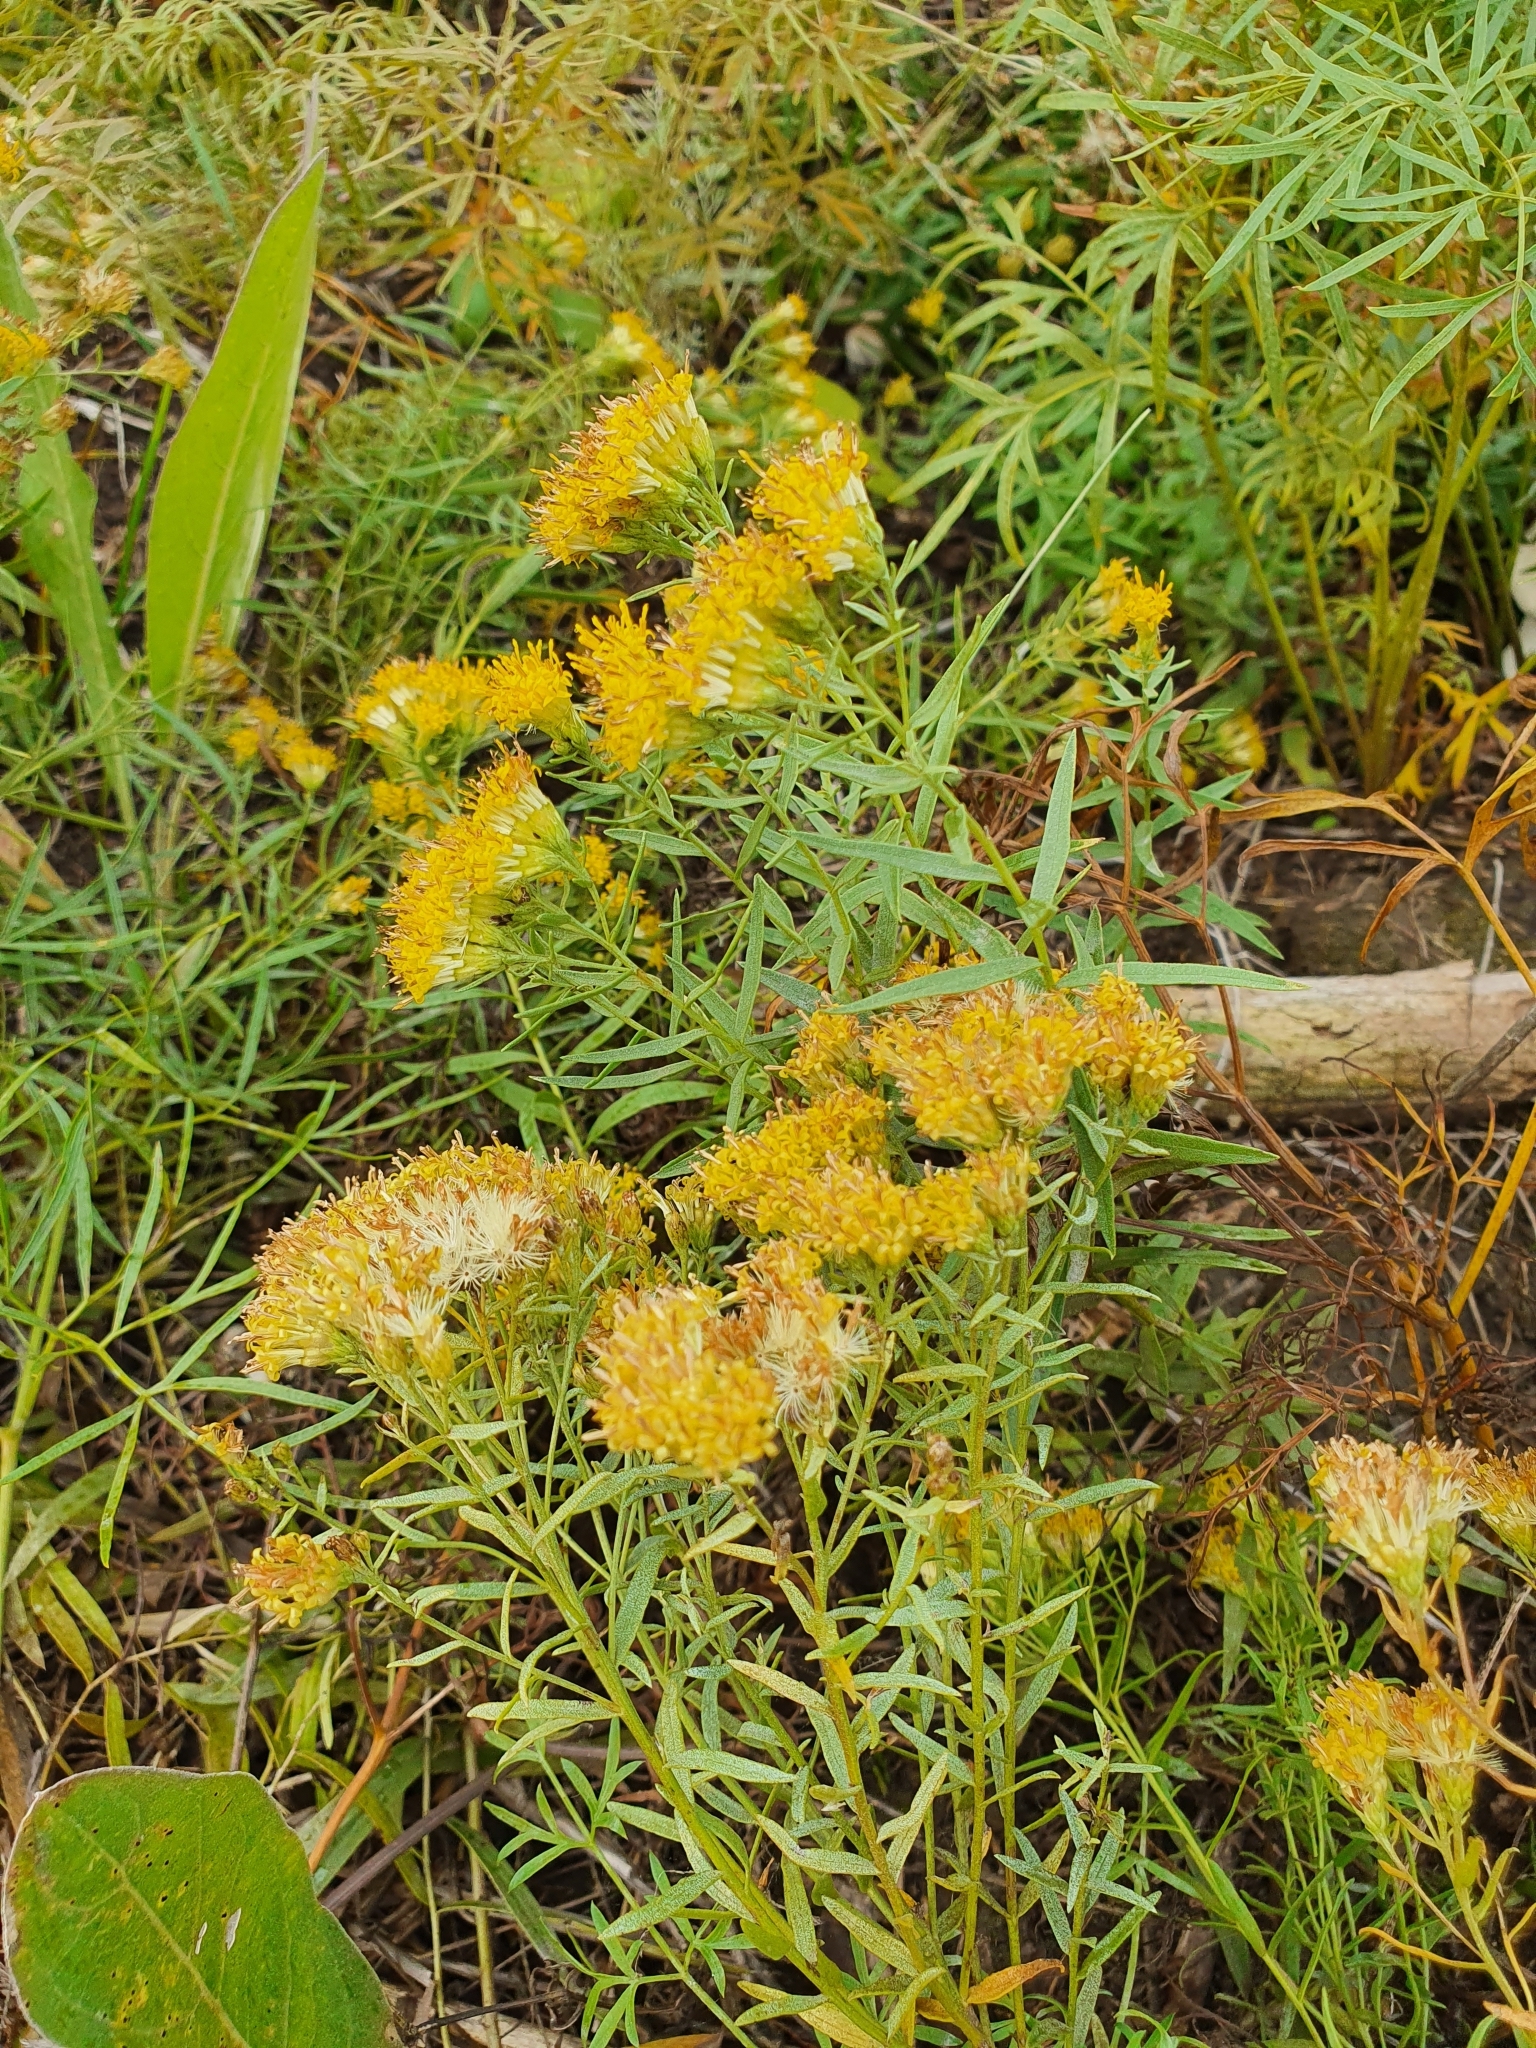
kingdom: Plantae
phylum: Tracheophyta
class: Magnoliopsida
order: Asterales
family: Asteraceae
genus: Galatella
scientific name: Galatella biflora
